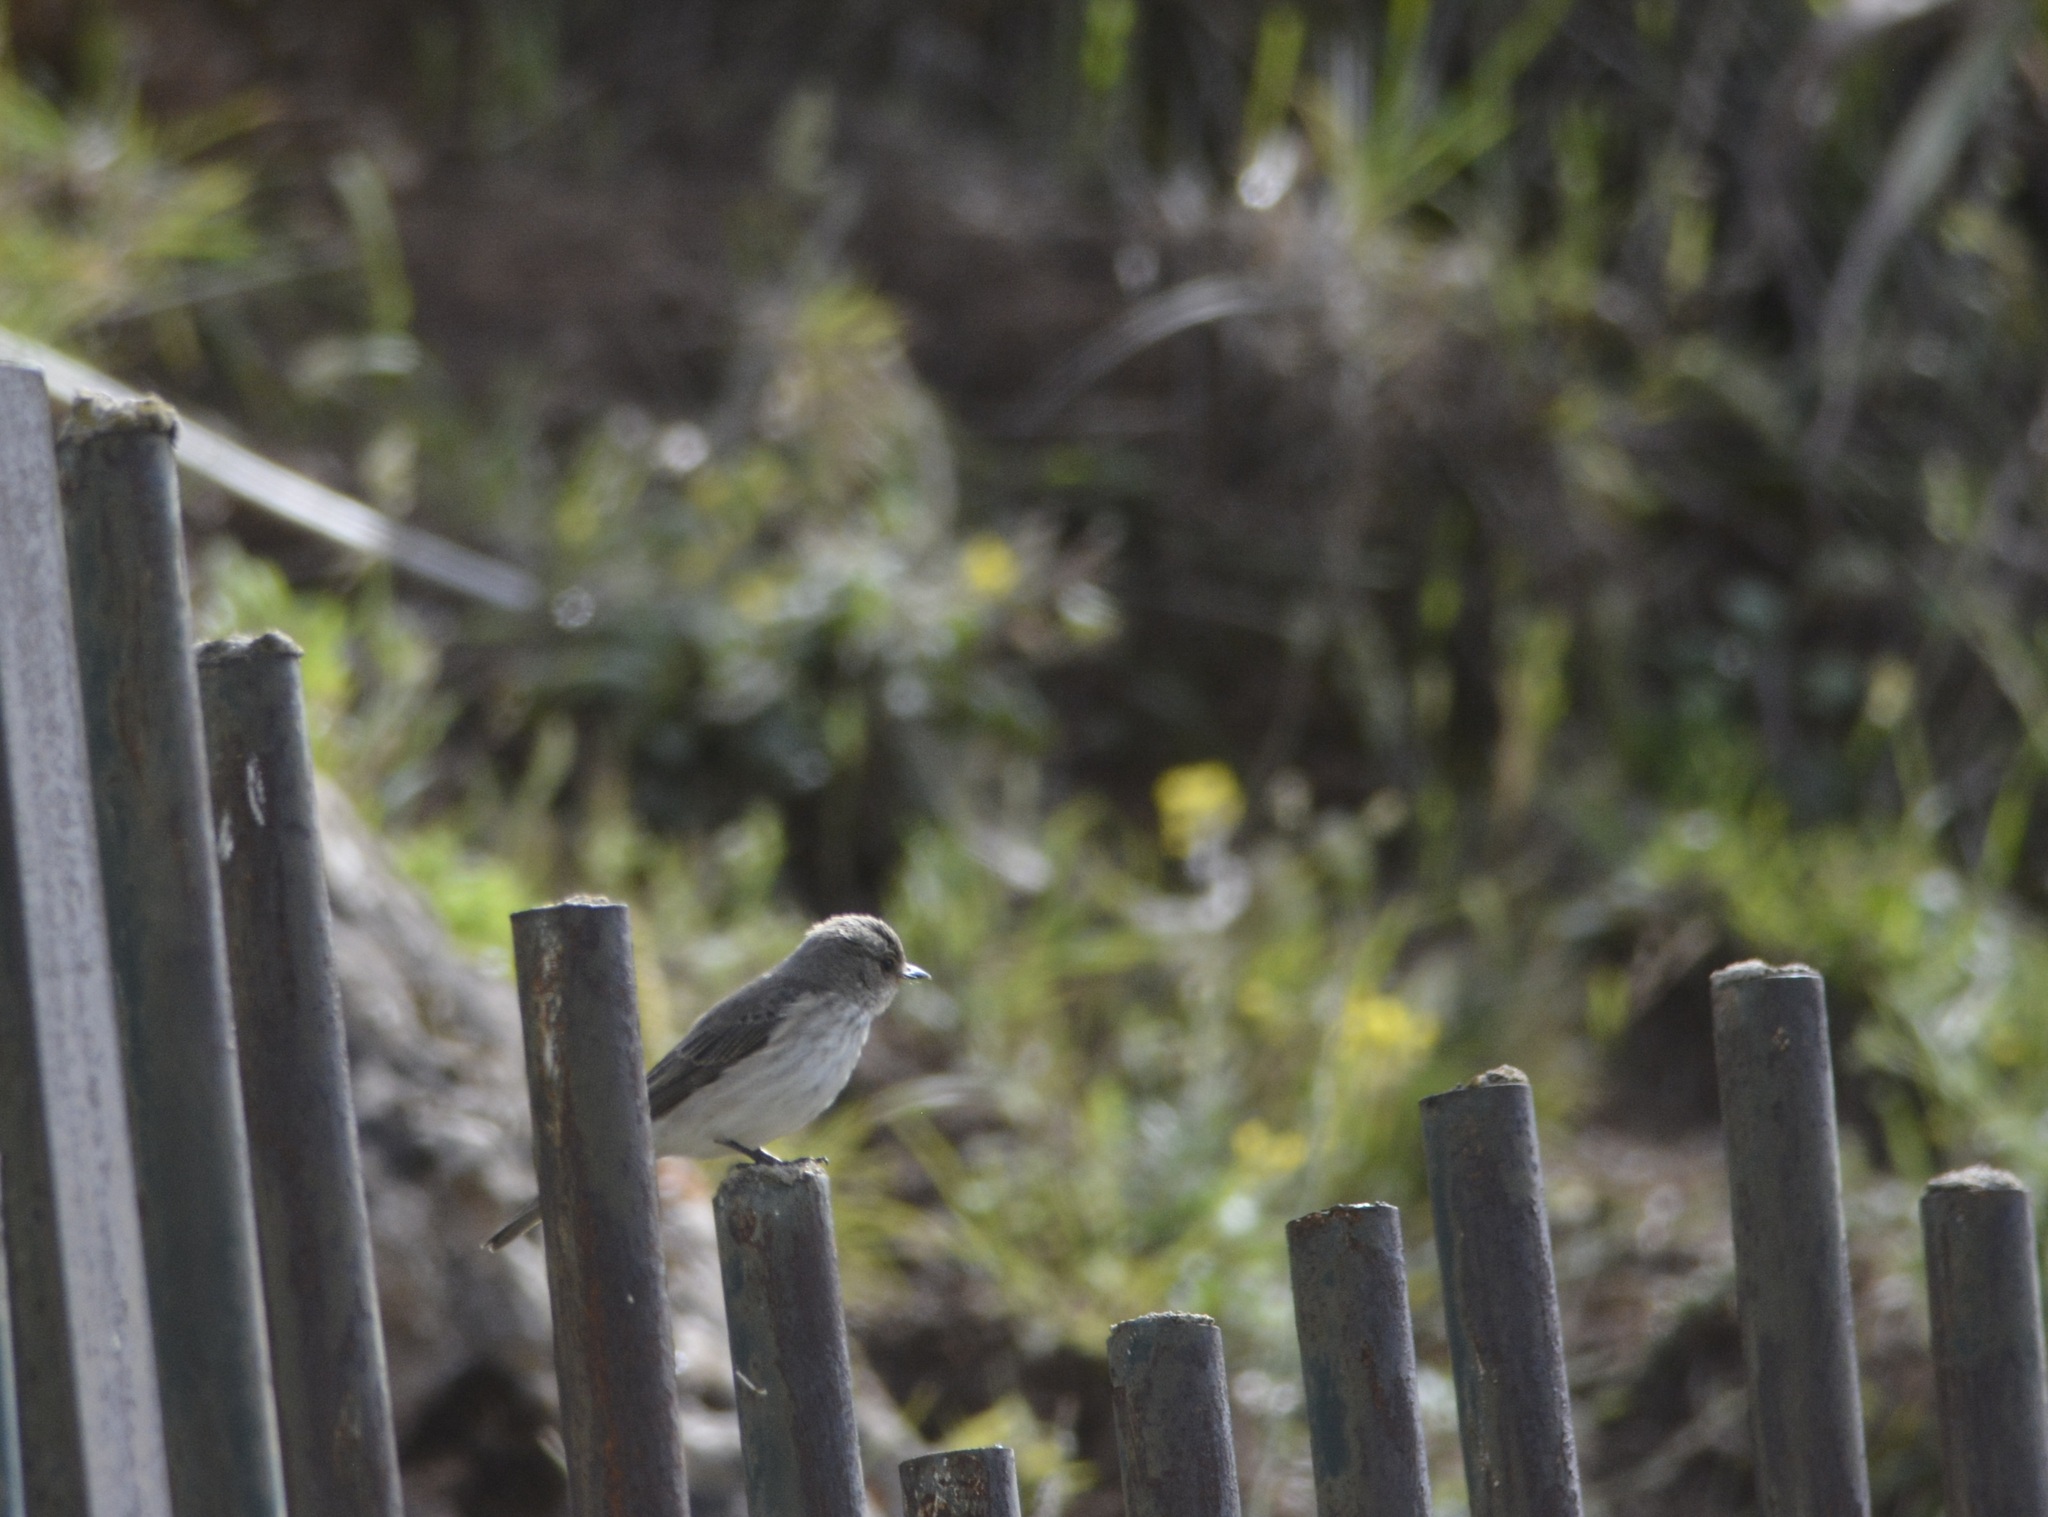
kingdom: Animalia
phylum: Chordata
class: Aves
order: Passeriformes
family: Muscicapidae
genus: Muscicapa
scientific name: Muscicapa striata
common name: Spotted flycatcher
